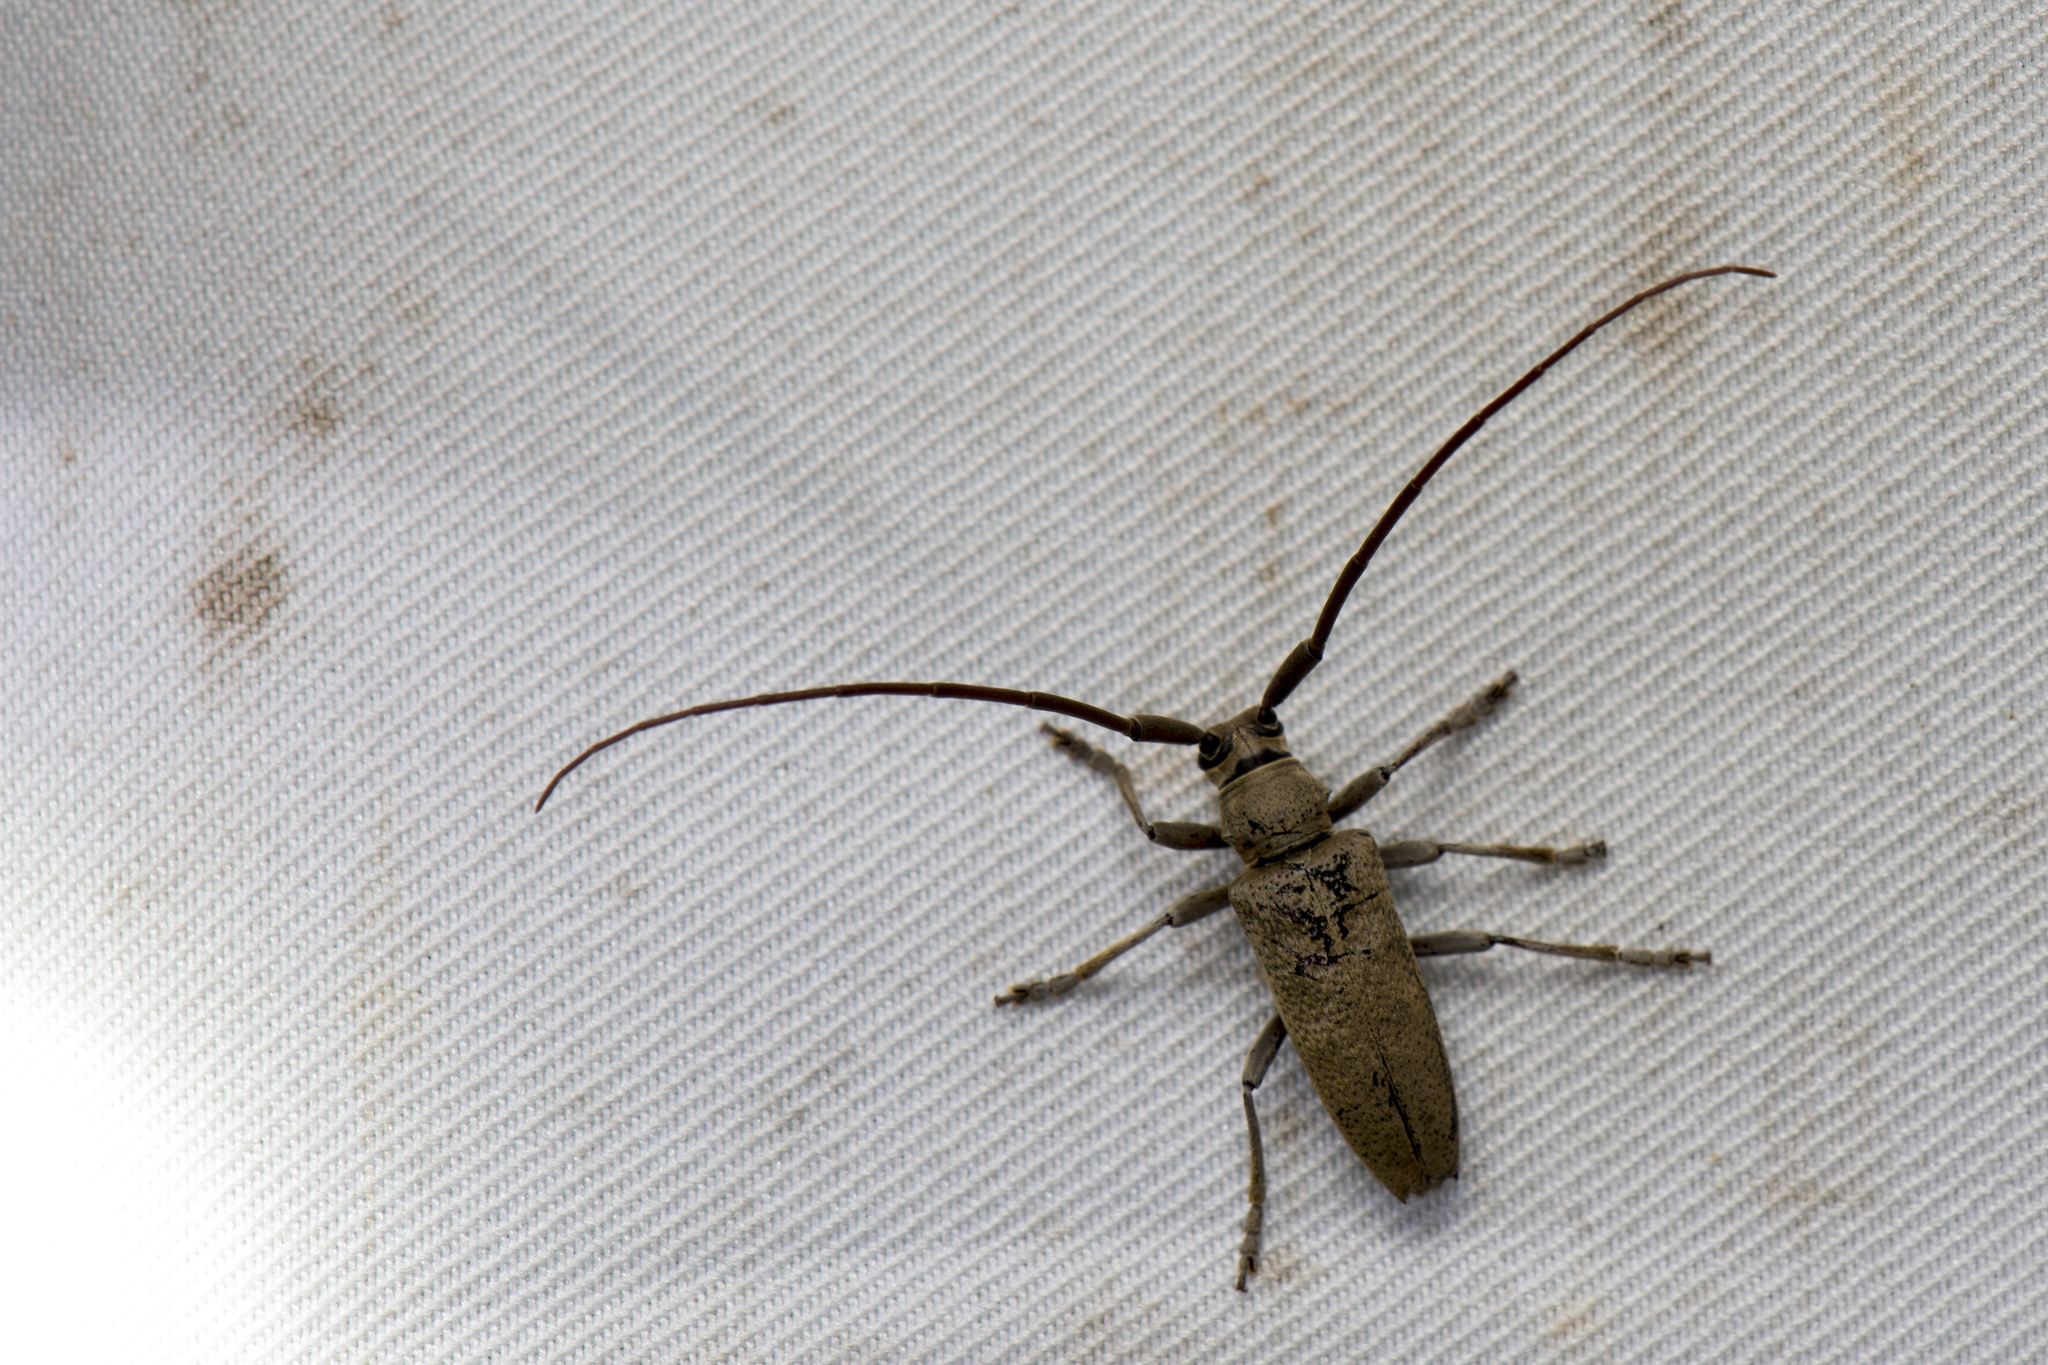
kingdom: Animalia
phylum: Arthropoda
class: Insecta
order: Coleoptera
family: Cerambycidae
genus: Peblephaeus
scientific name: Peblephaeus decoloratus
